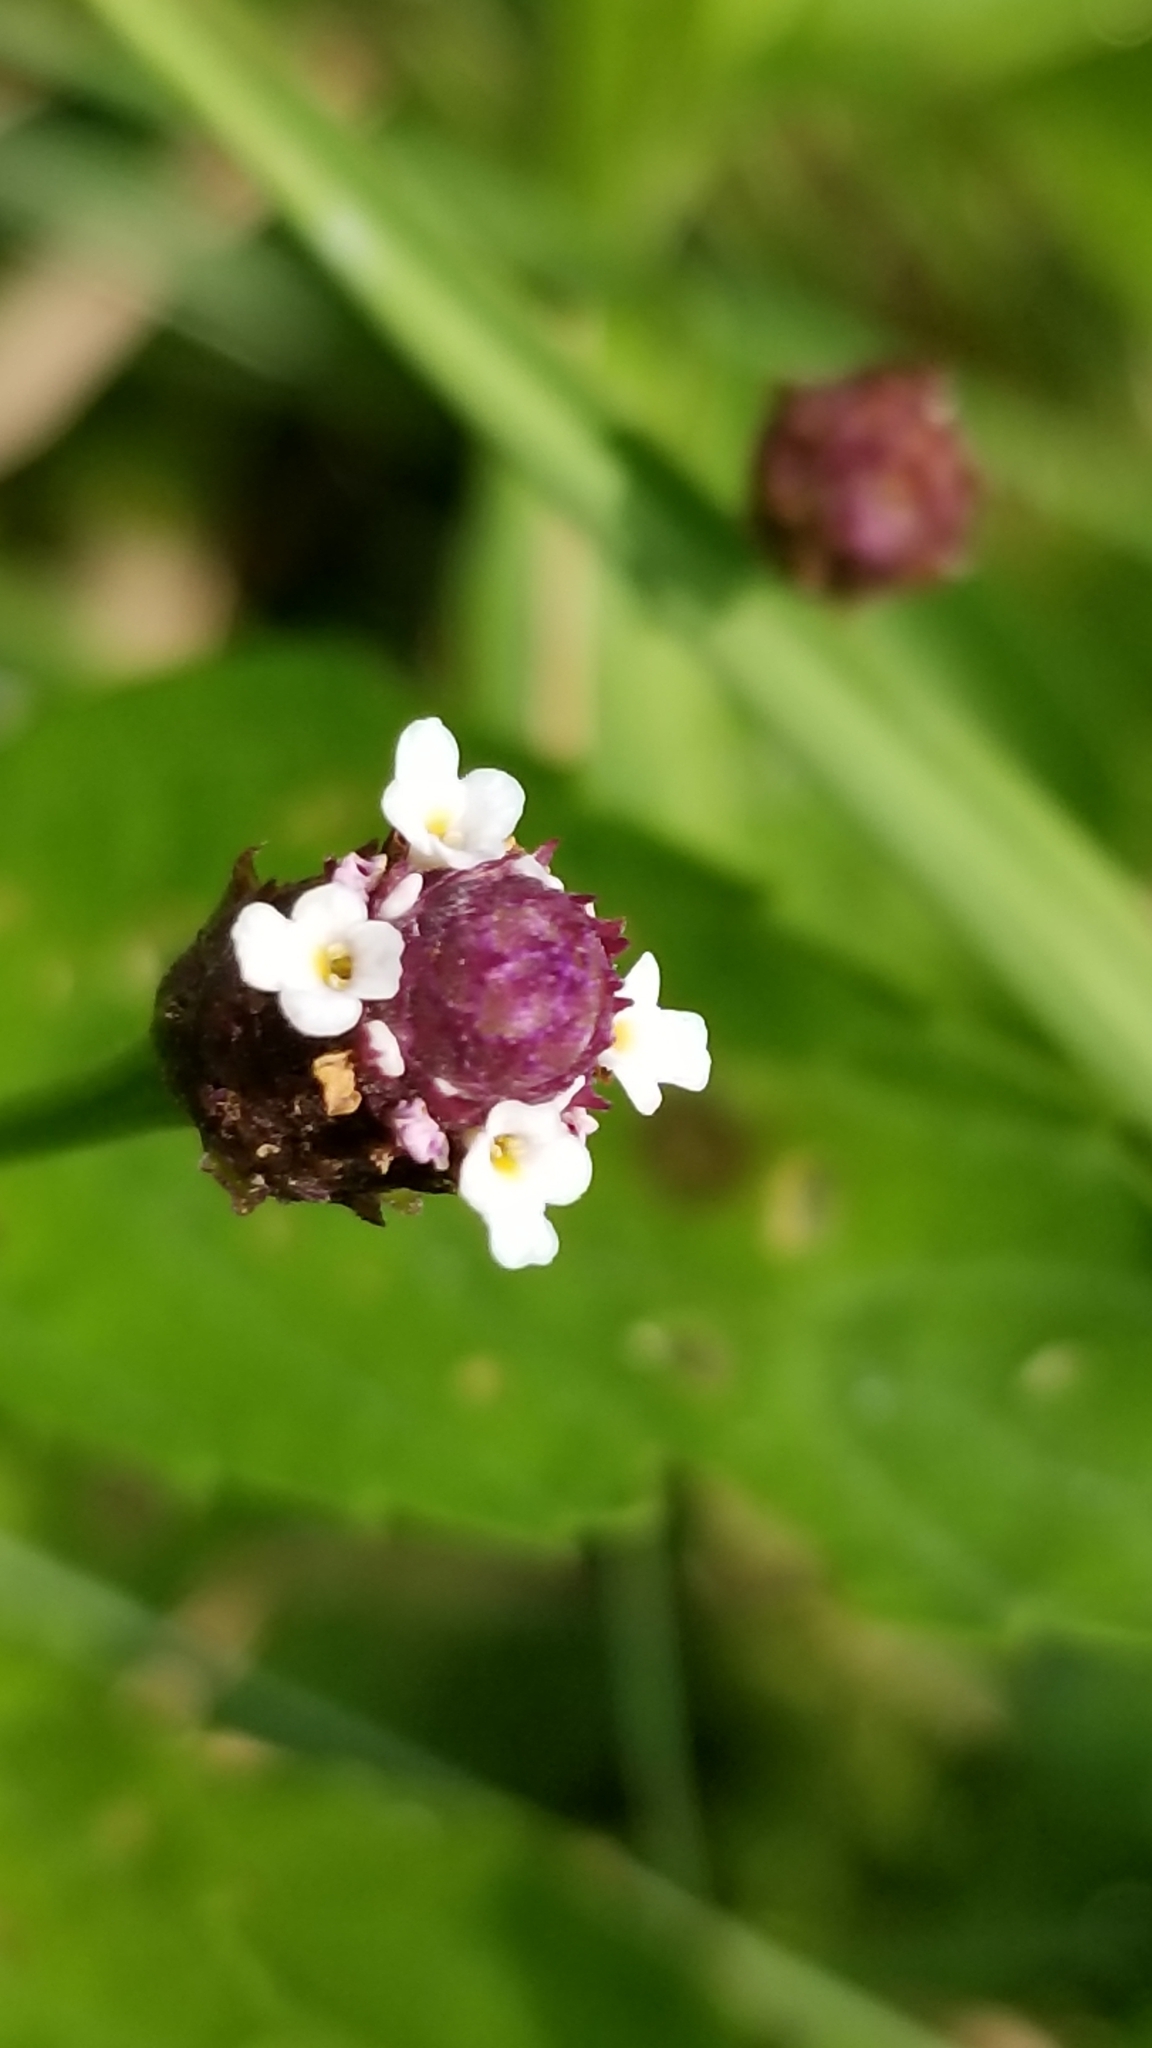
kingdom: Plantae
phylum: Tracheophyta
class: Magnoliopsida
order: Lamiales
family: Verbenaceae
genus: Phyla
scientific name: Phyla lanceolata
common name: Northern fogfruit
